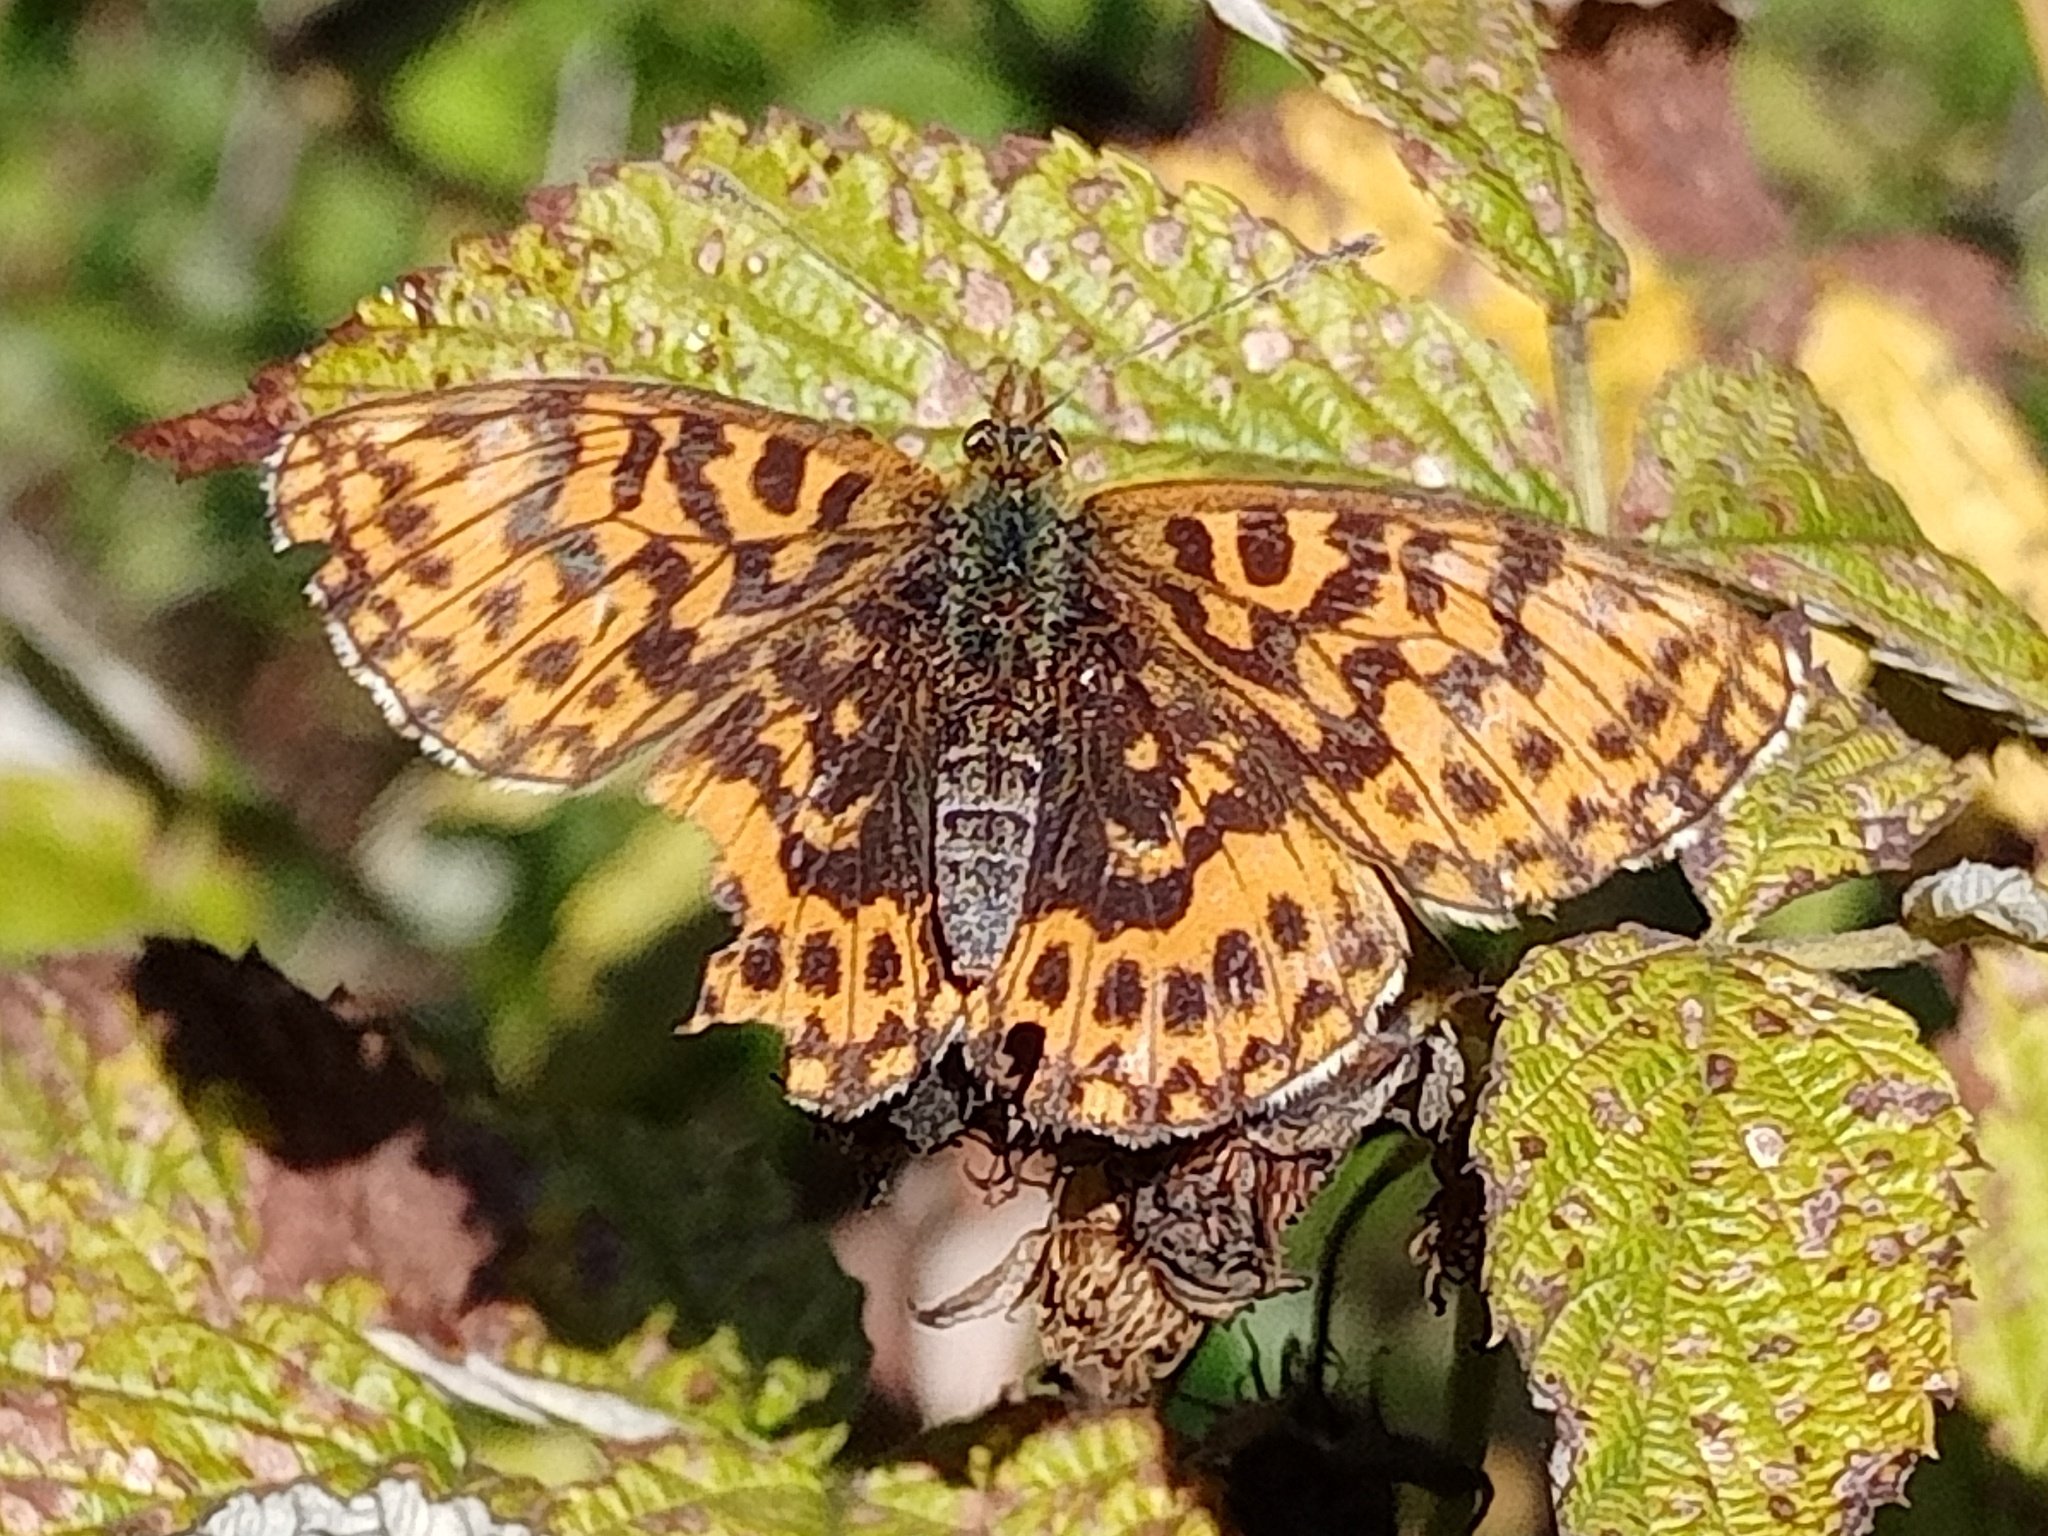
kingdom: Animalia
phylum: Arthropoda
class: Insecta
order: Lepidoptera
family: Nymphalidae
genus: Boloria
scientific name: Boloria dia
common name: Weaver's fritillary
